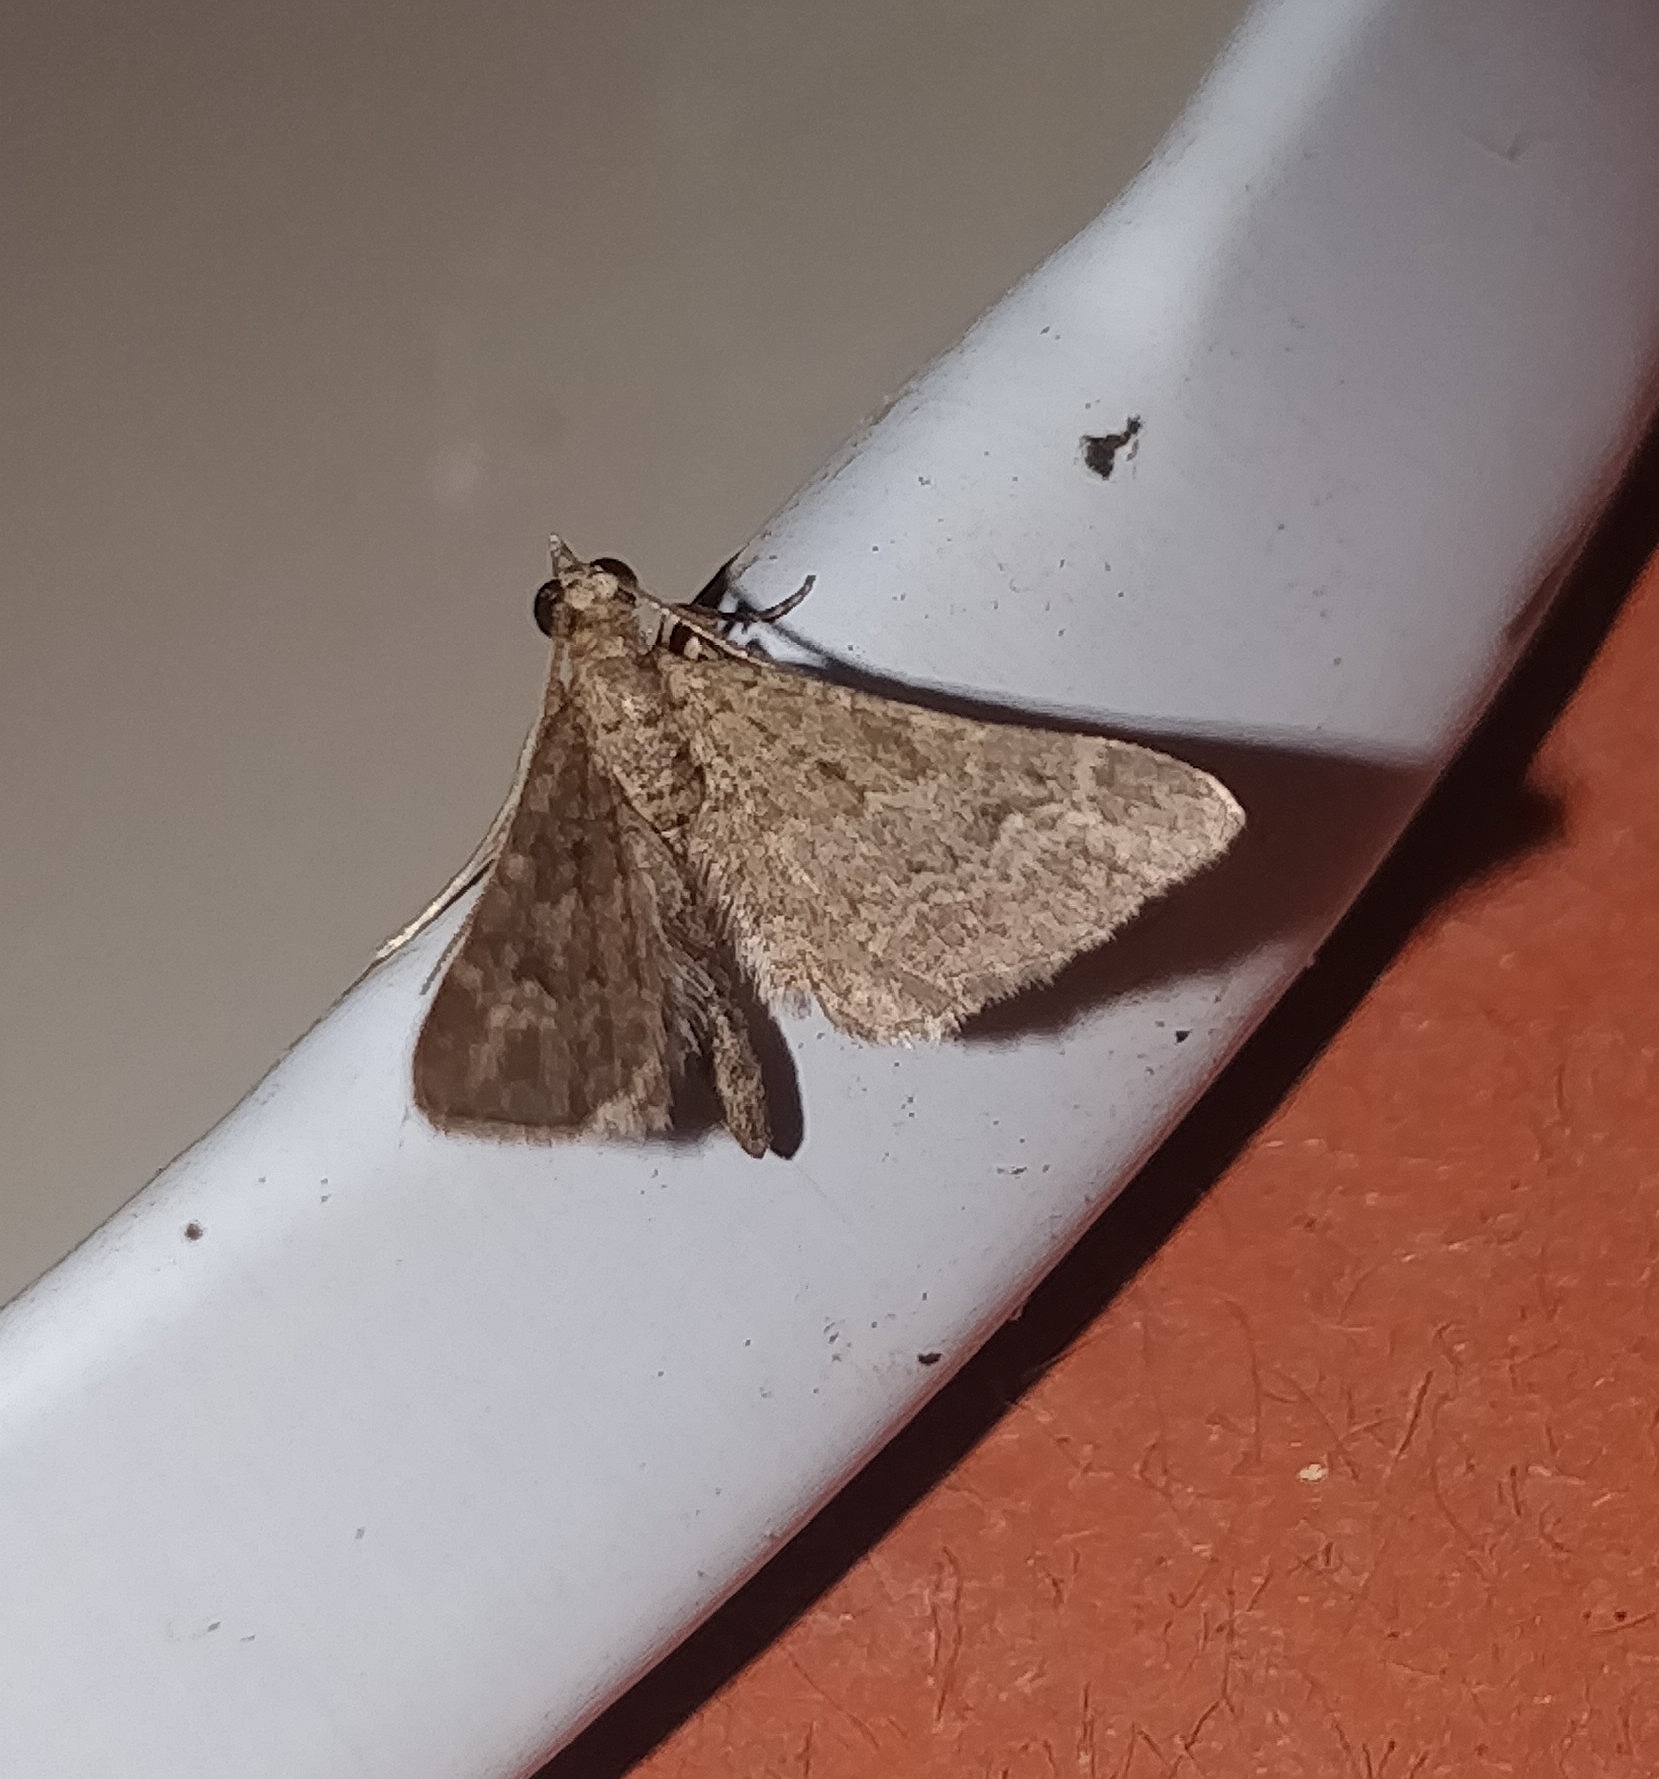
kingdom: Animalia
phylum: Arthropoda
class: Insecta
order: Lepidoptera
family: Geometridae
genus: Gymnoscelis
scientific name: Gymnoscelis rufifasciata
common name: Double-striped pug
